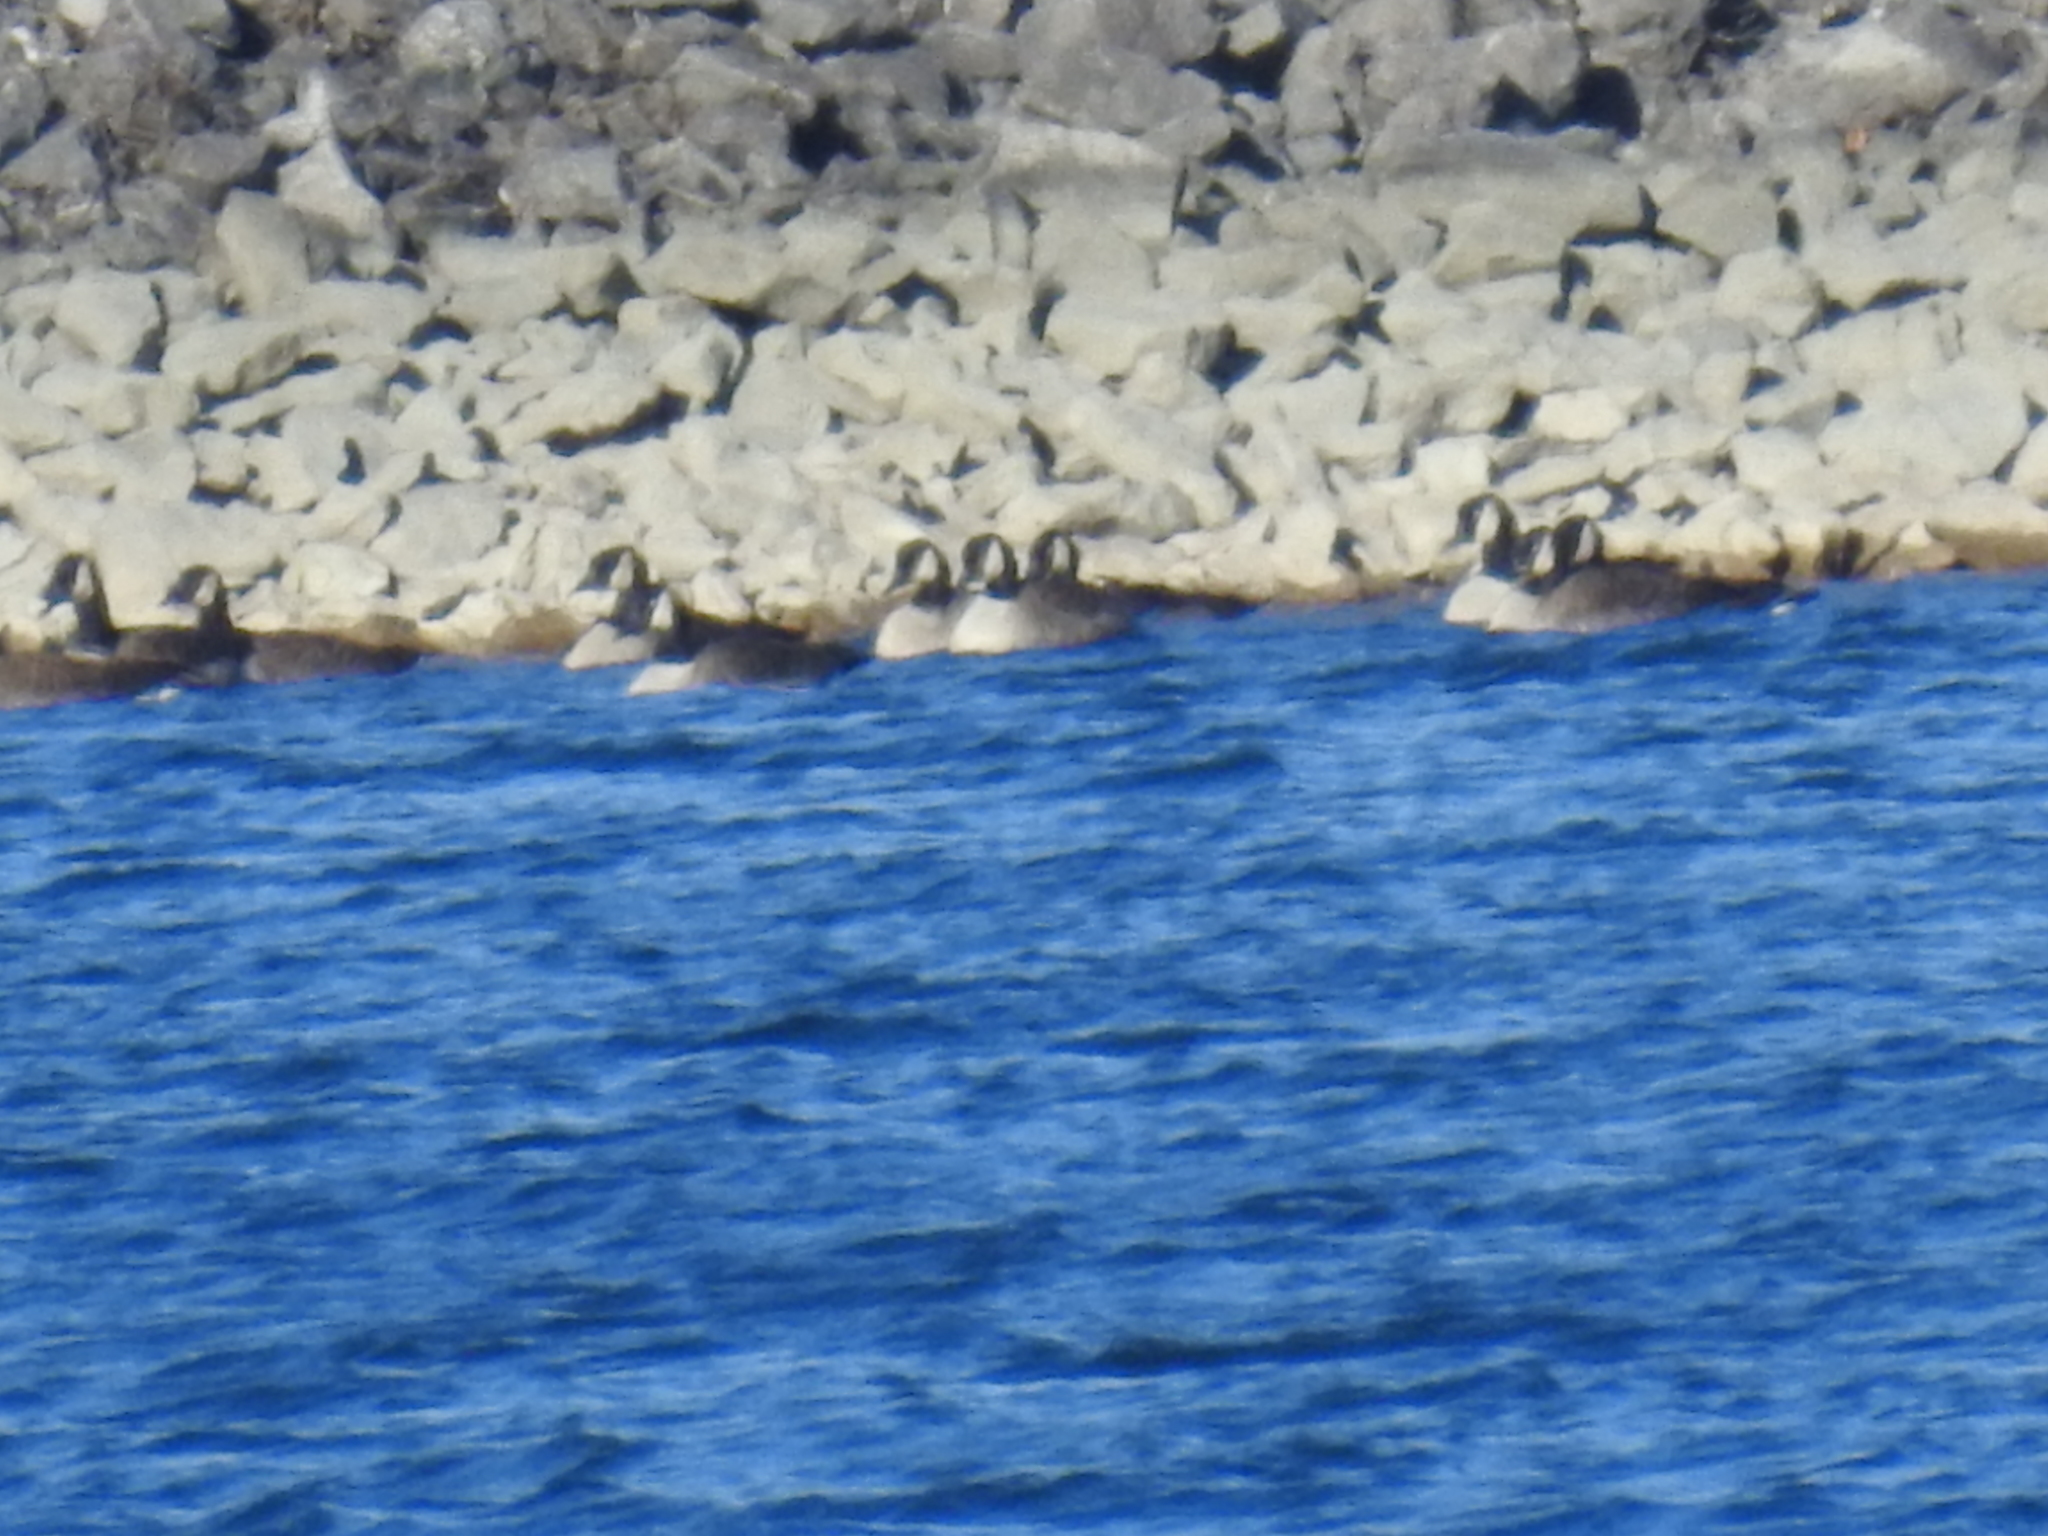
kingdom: Animalia
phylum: Chordata
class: Aves
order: Anseriformes
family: Anatidae
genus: Branta
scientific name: Branta canadensis
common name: Canada goose
